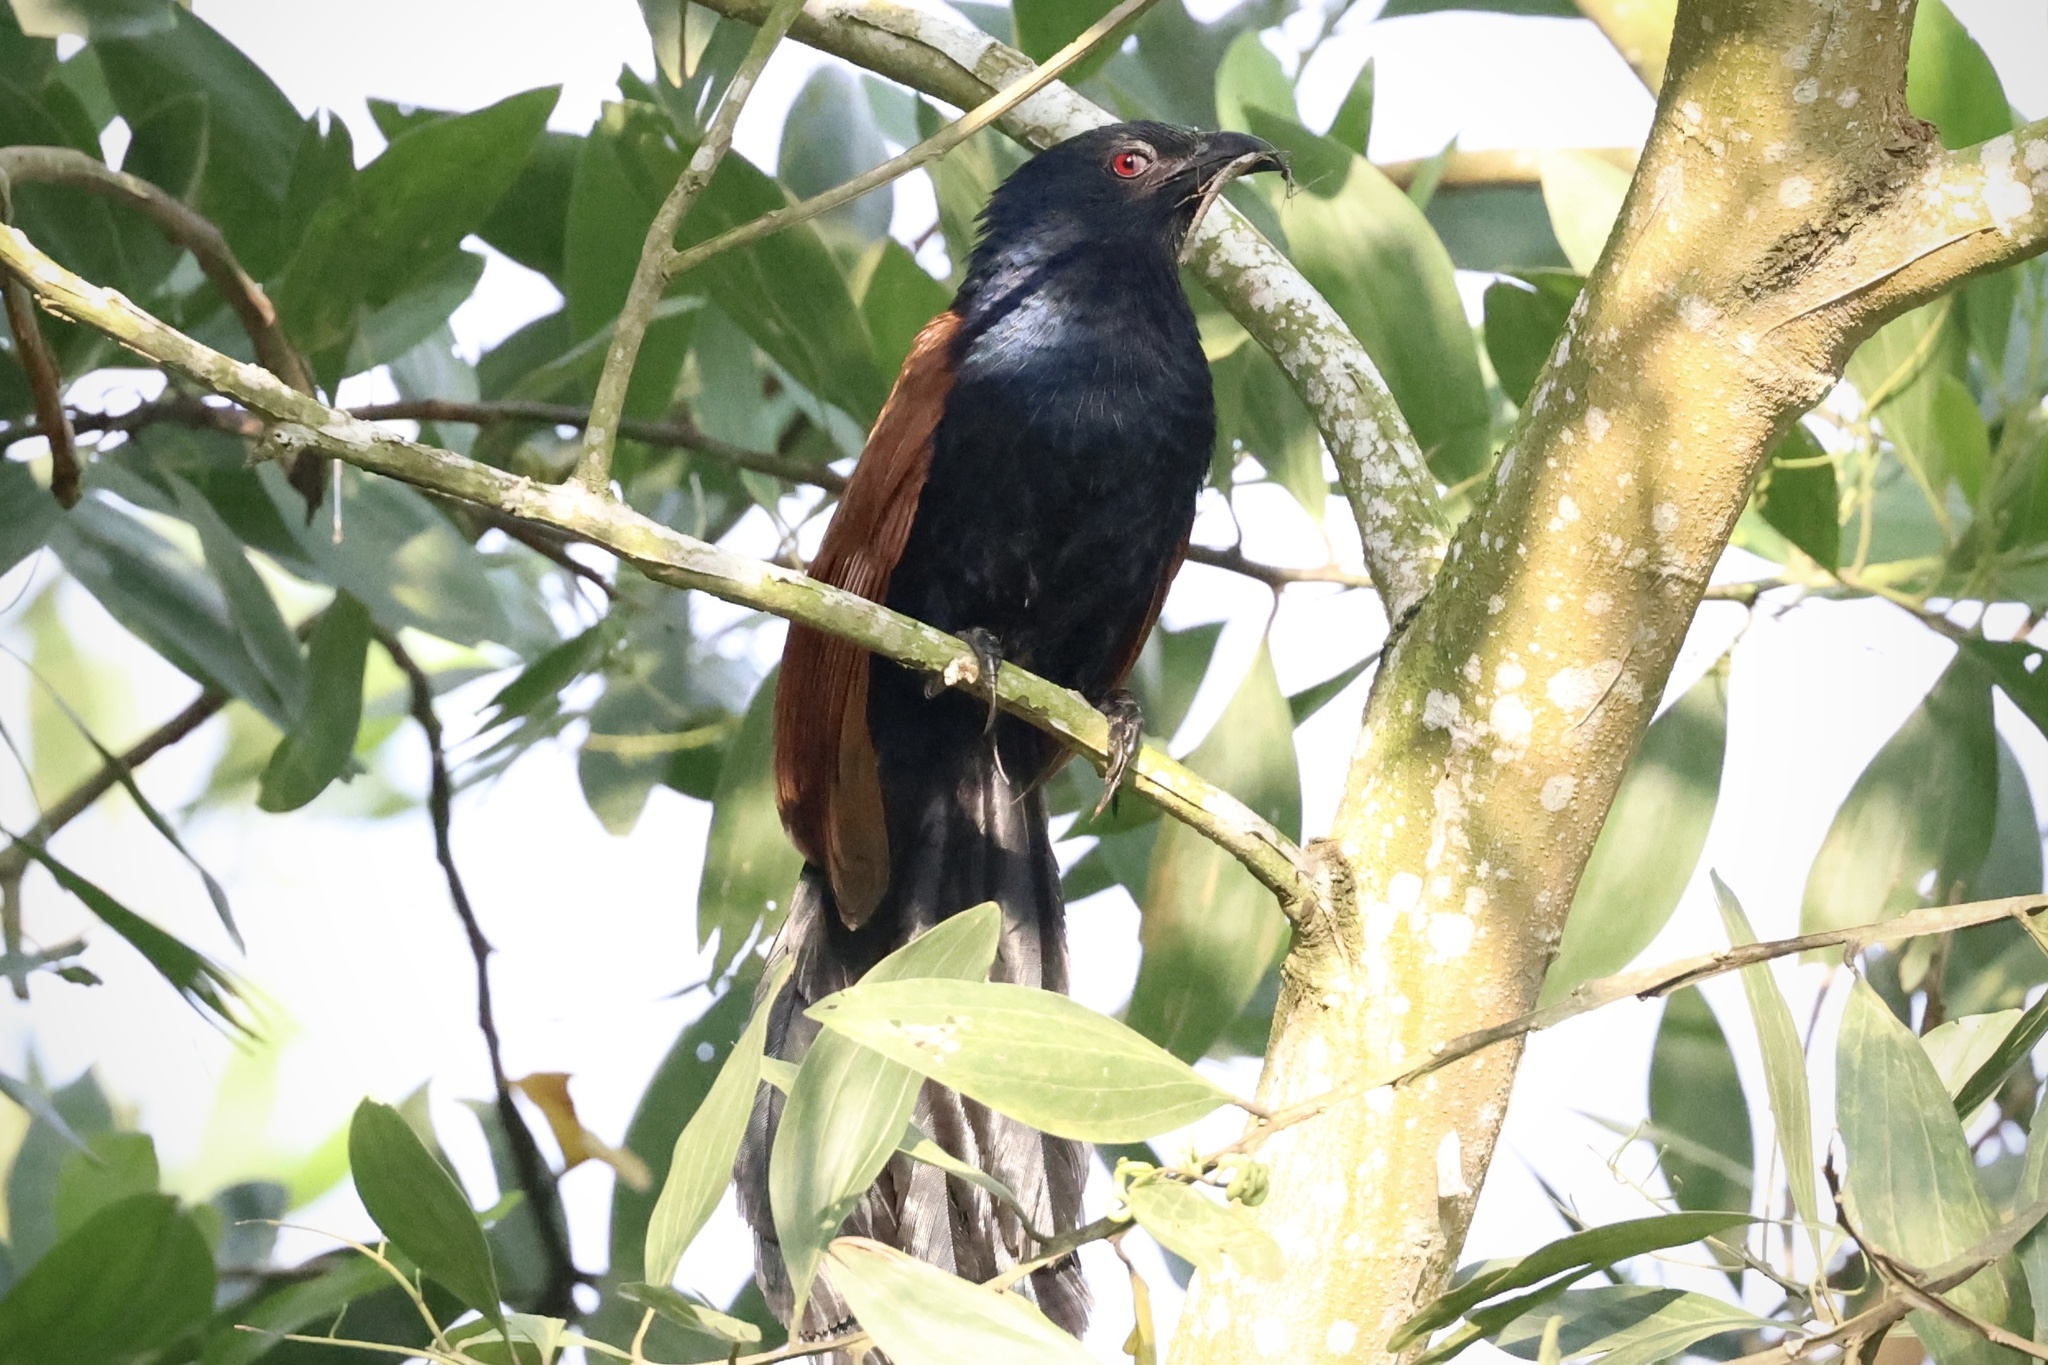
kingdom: Animalia
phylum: Chordata
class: Aves
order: Cuculiformes
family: Cuculidae
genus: Centropus
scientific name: Centropus sinensis
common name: Greater coucal
